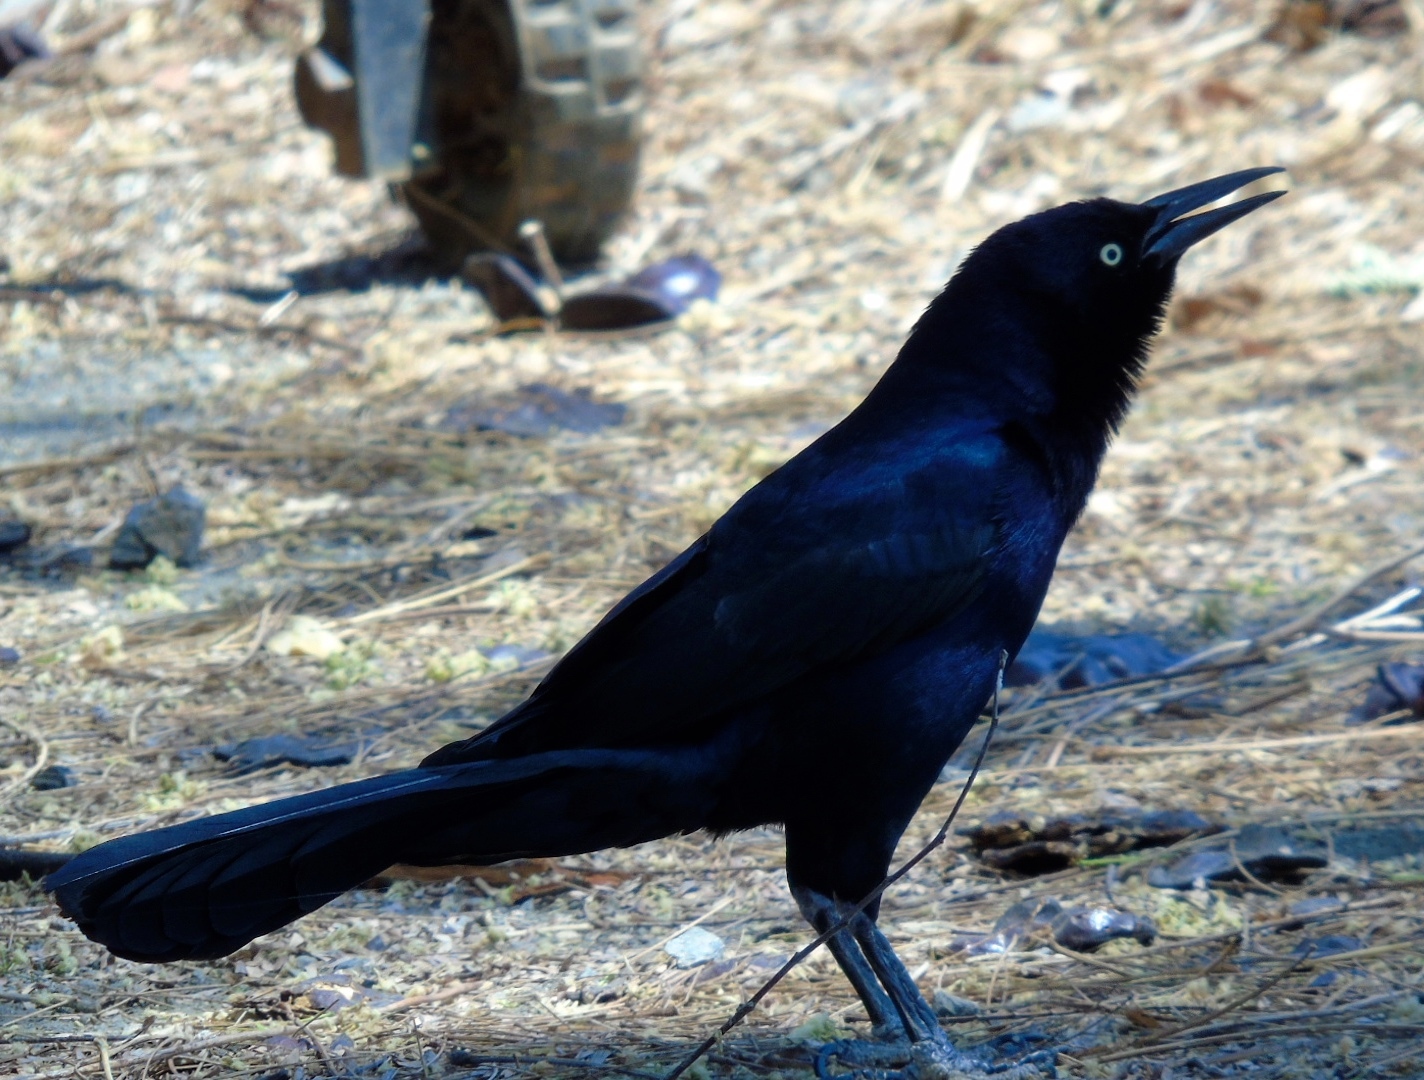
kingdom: Animalia
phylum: Chordata
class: Aves
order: Passeriformes
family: Icteridae
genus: Quiscalus
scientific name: Quiscalus mexicanus
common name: Great-tailed grackle
